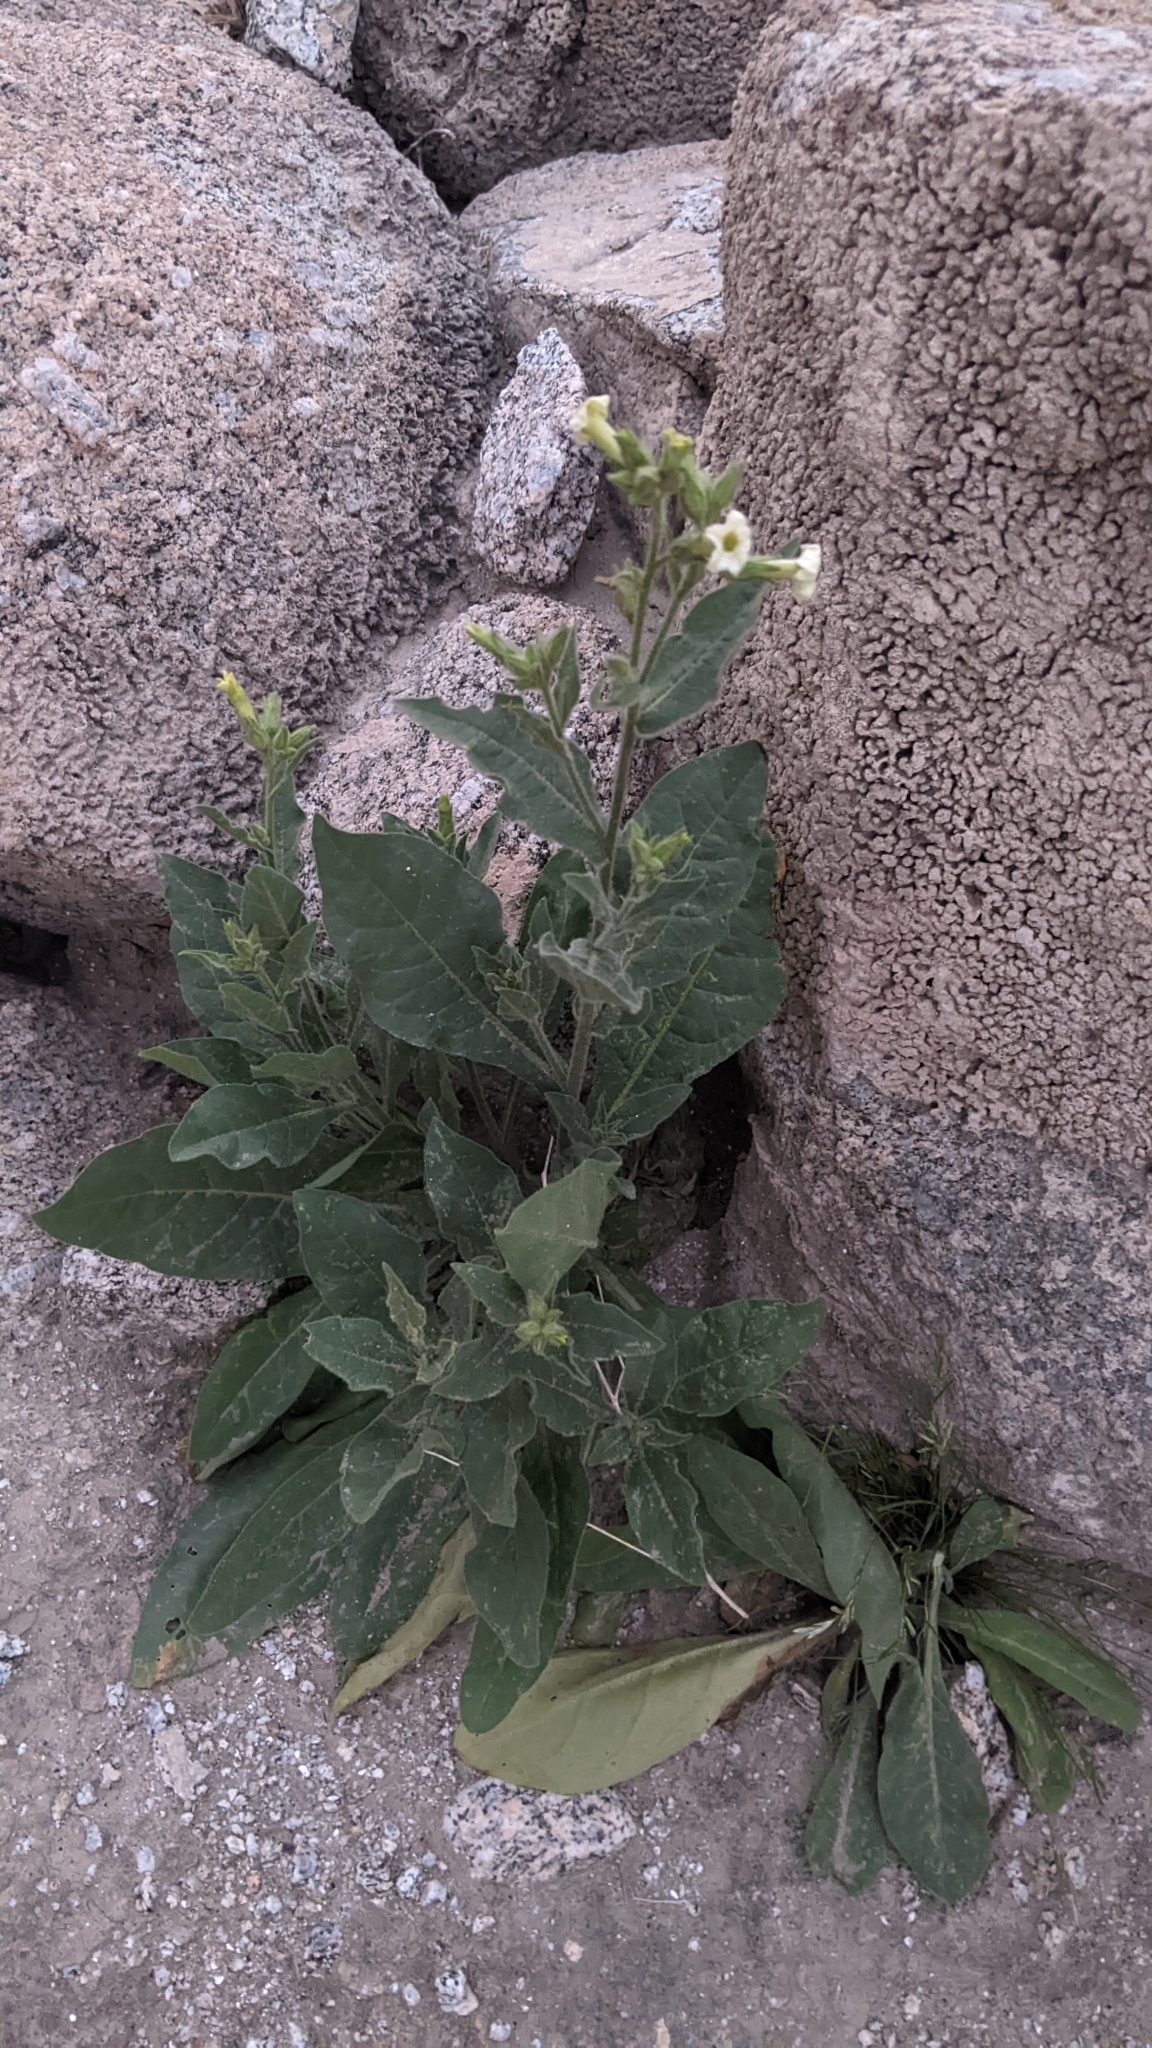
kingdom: Plantae
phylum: Tracheophyta
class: Magnoliopsida
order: Solanales
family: Solanaceae
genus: Nicotiana
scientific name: Nicotiana obtusifolia
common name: Desert tobacco
